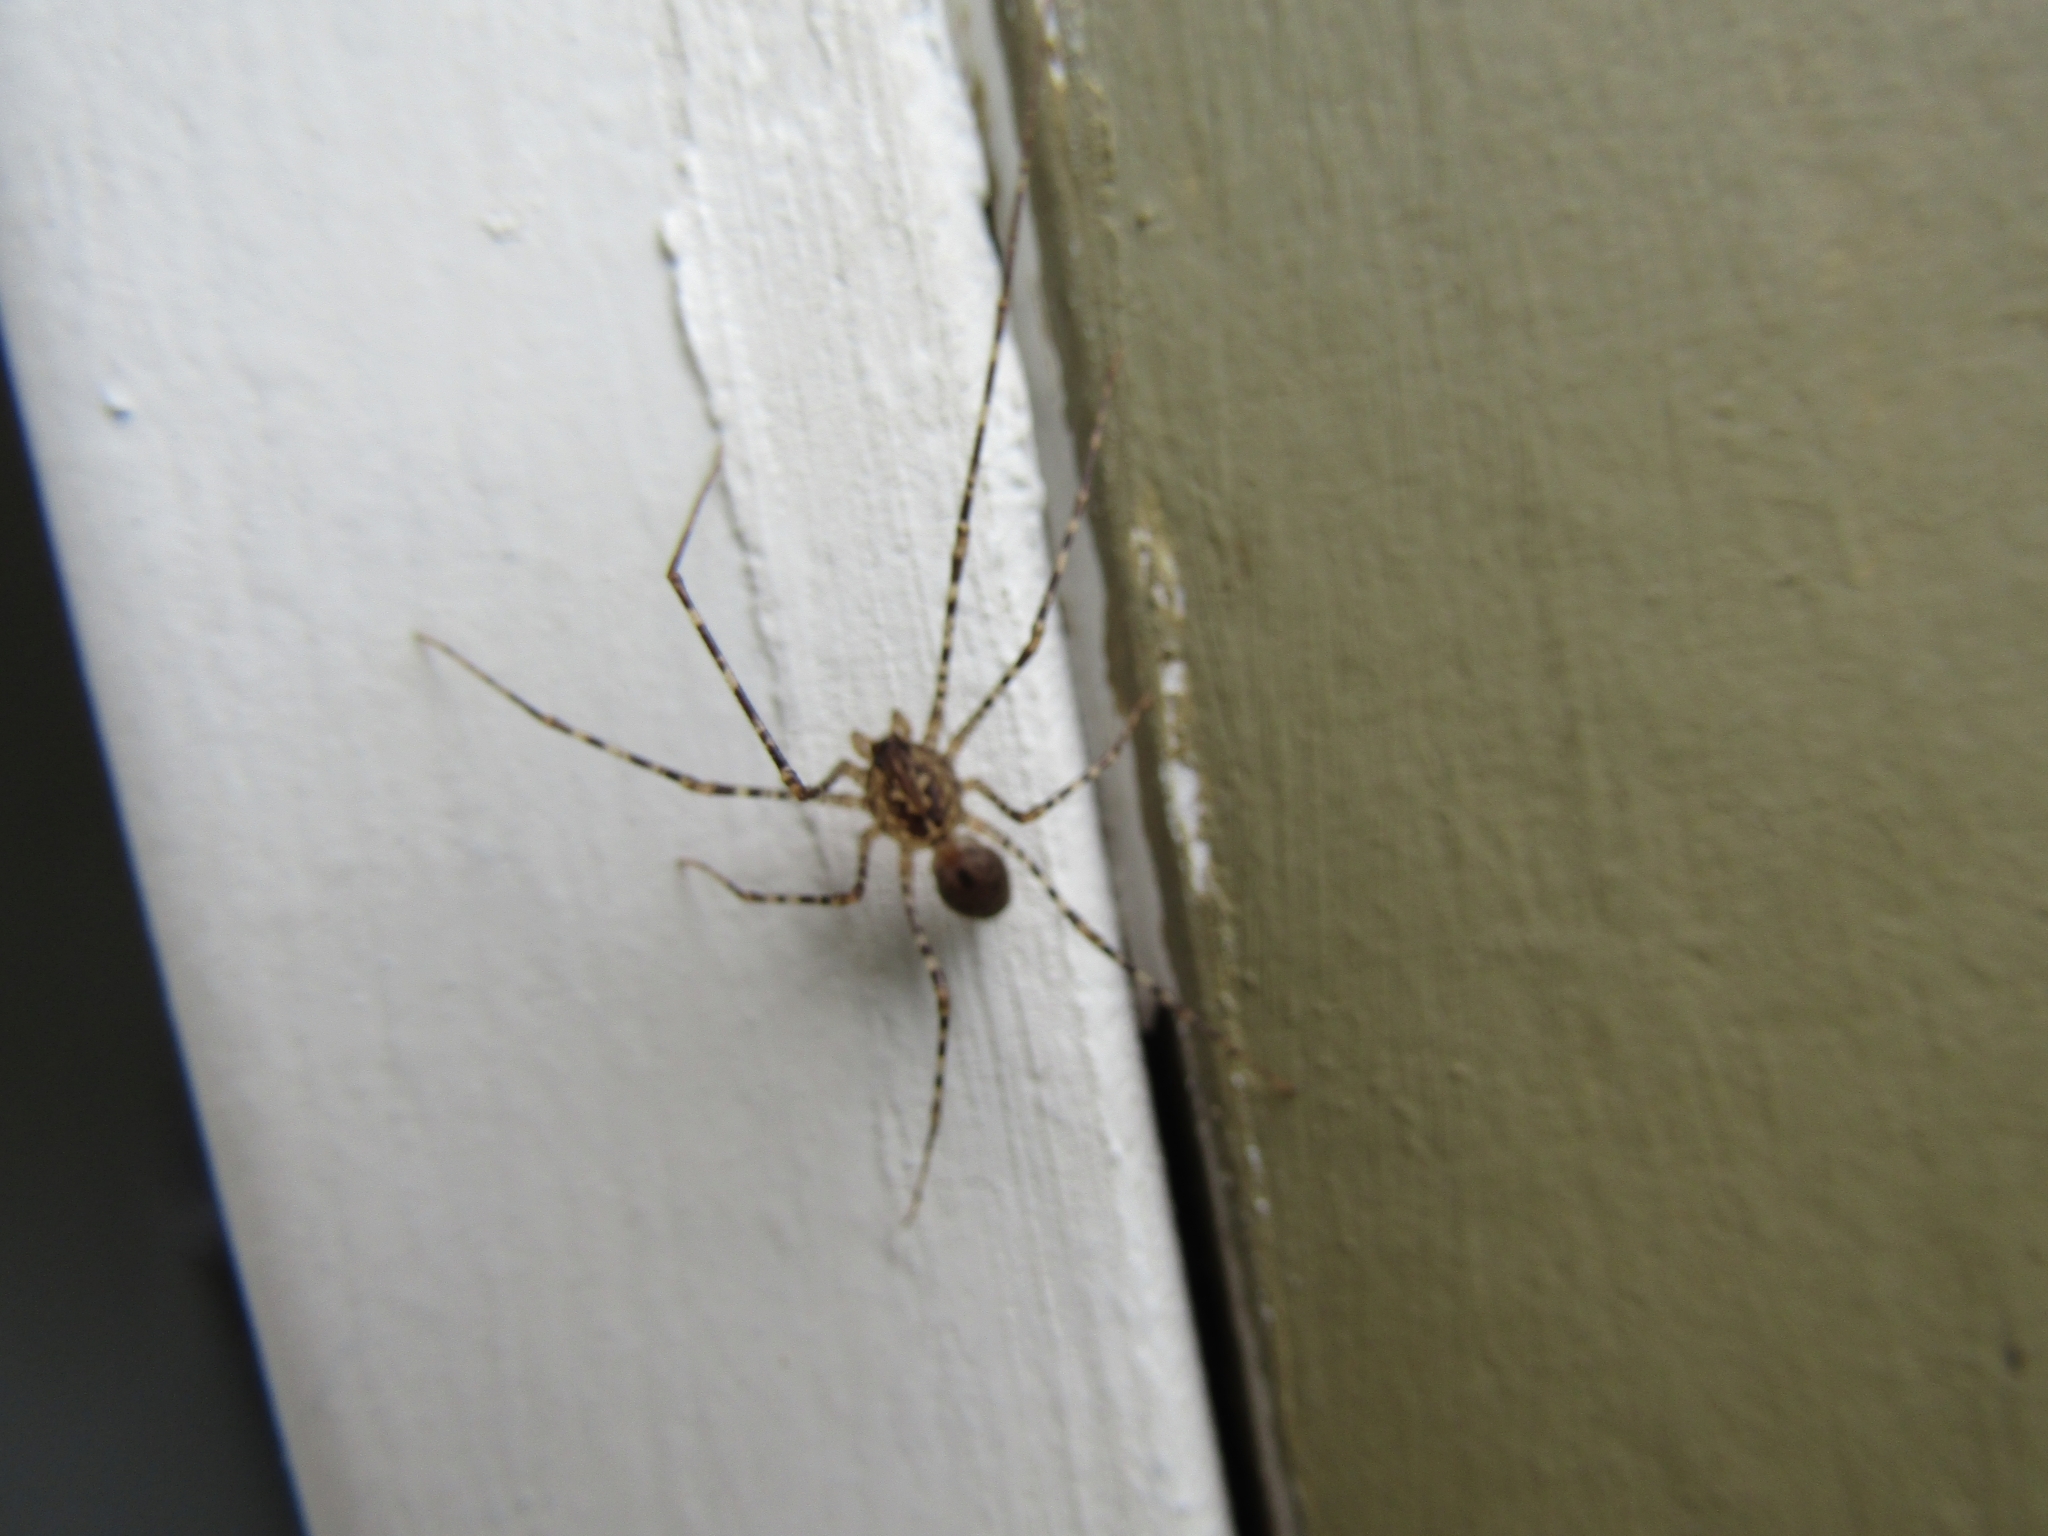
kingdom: Animalia
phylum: Arthropoda
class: Arachnida
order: Araneae
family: Scytodidae
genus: Scytodes
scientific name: Scytodes globula
